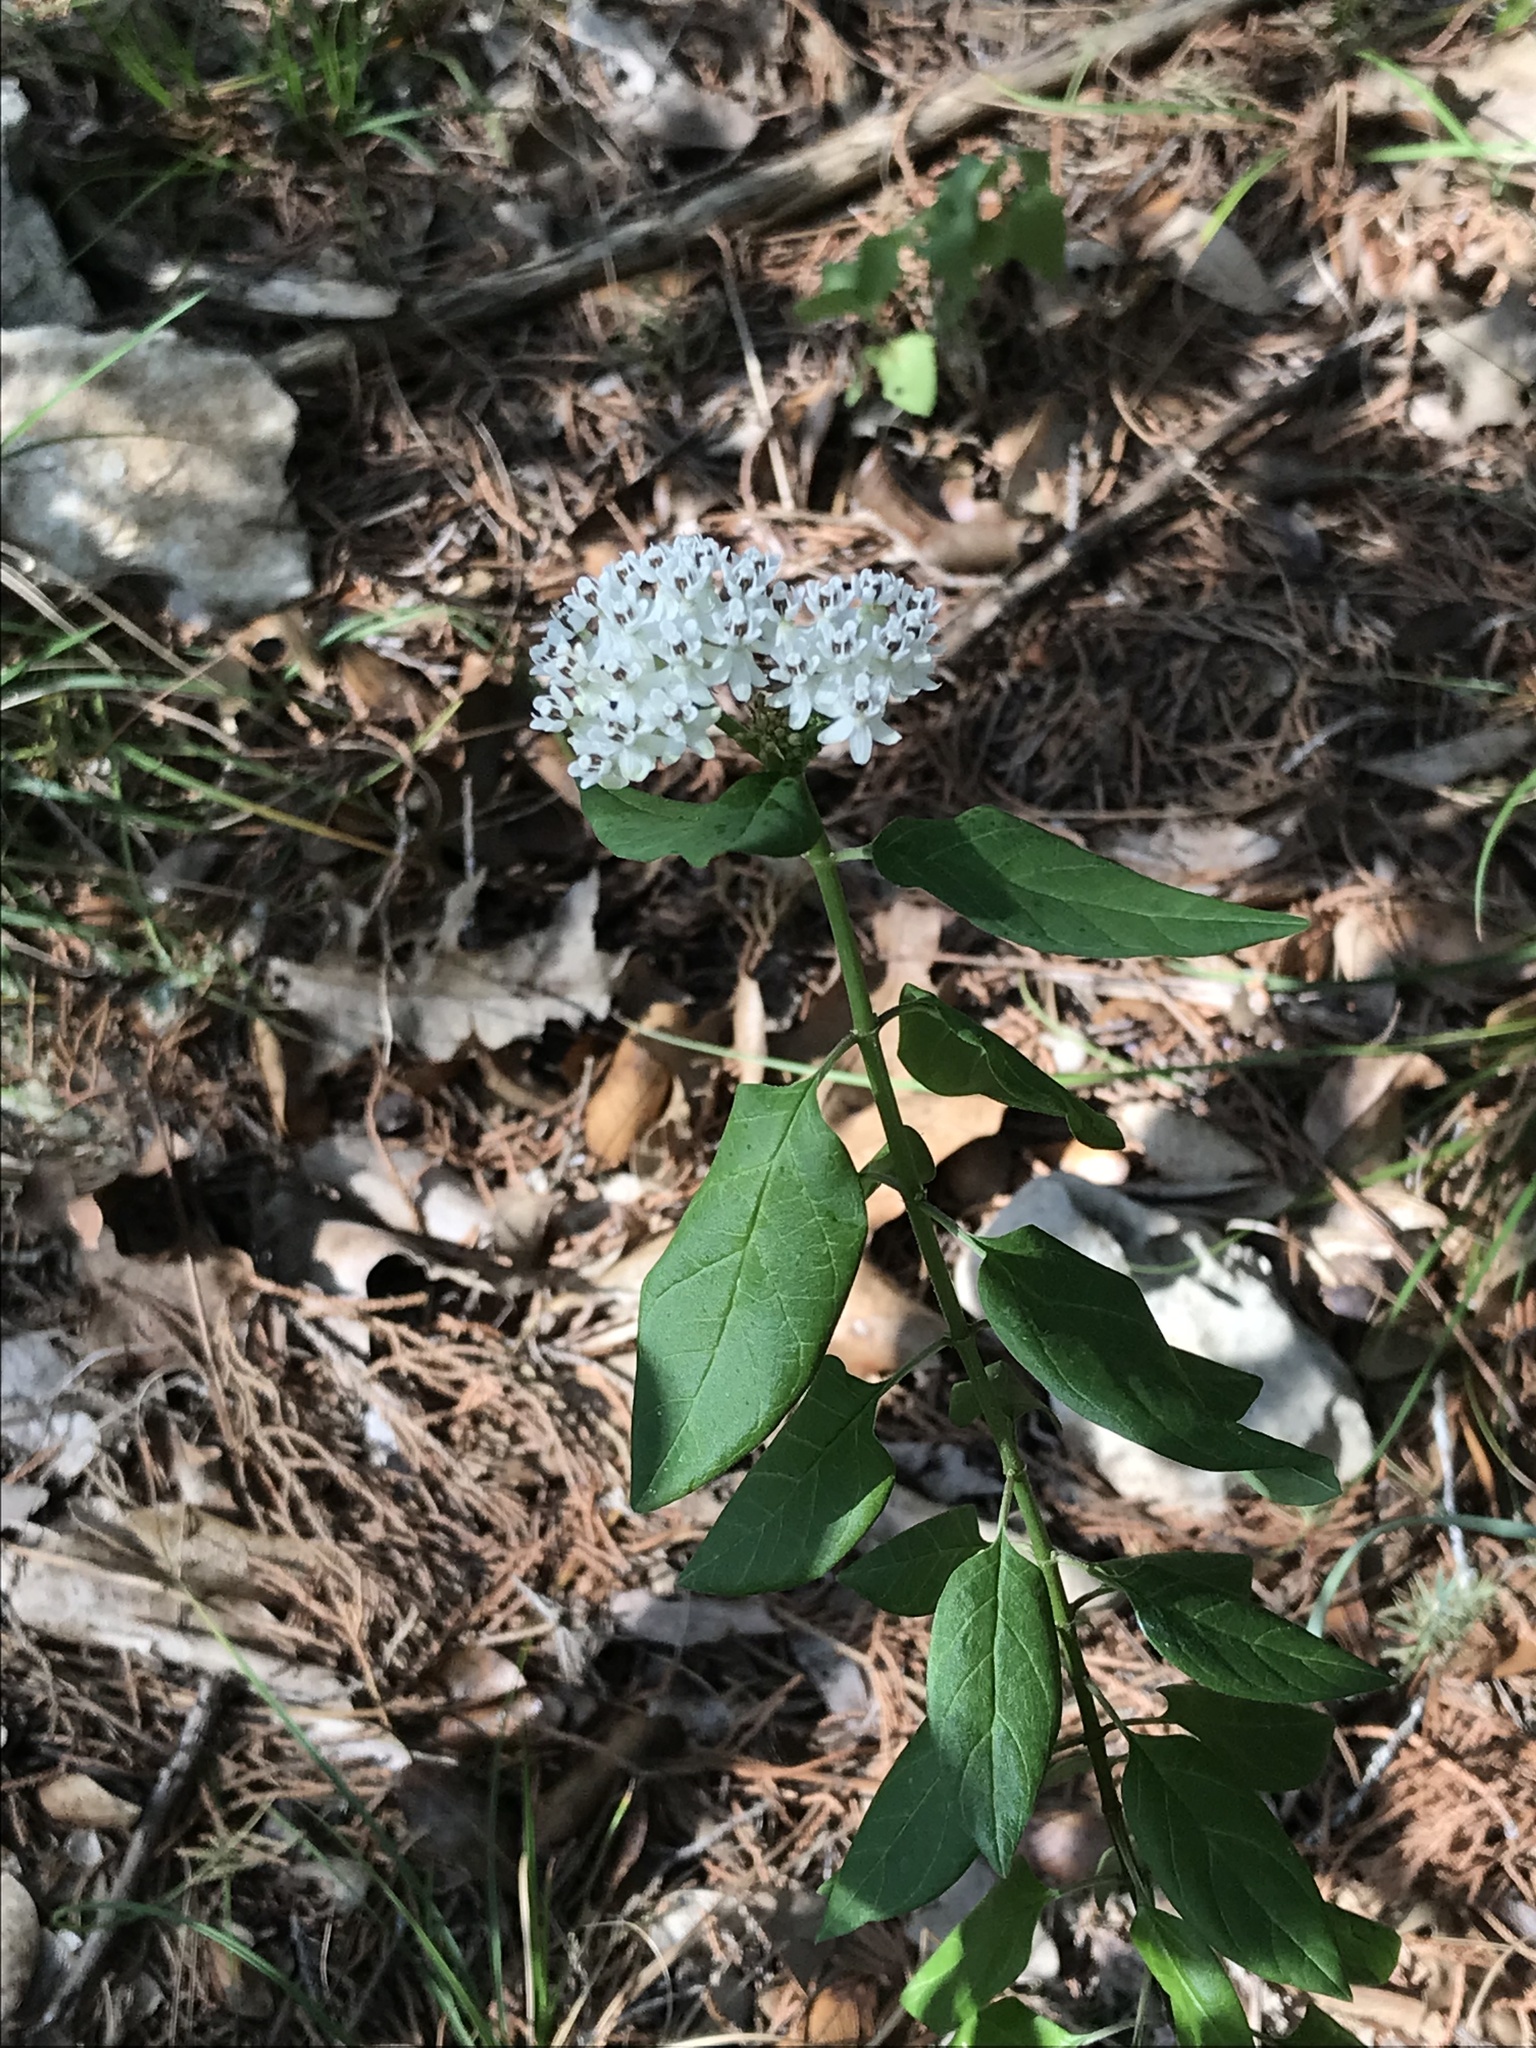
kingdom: Plantae
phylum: Tracheophyta
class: Magnoliopsida
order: Gentianales
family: Apocynaceae
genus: Asclepias
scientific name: Asclepias texana
